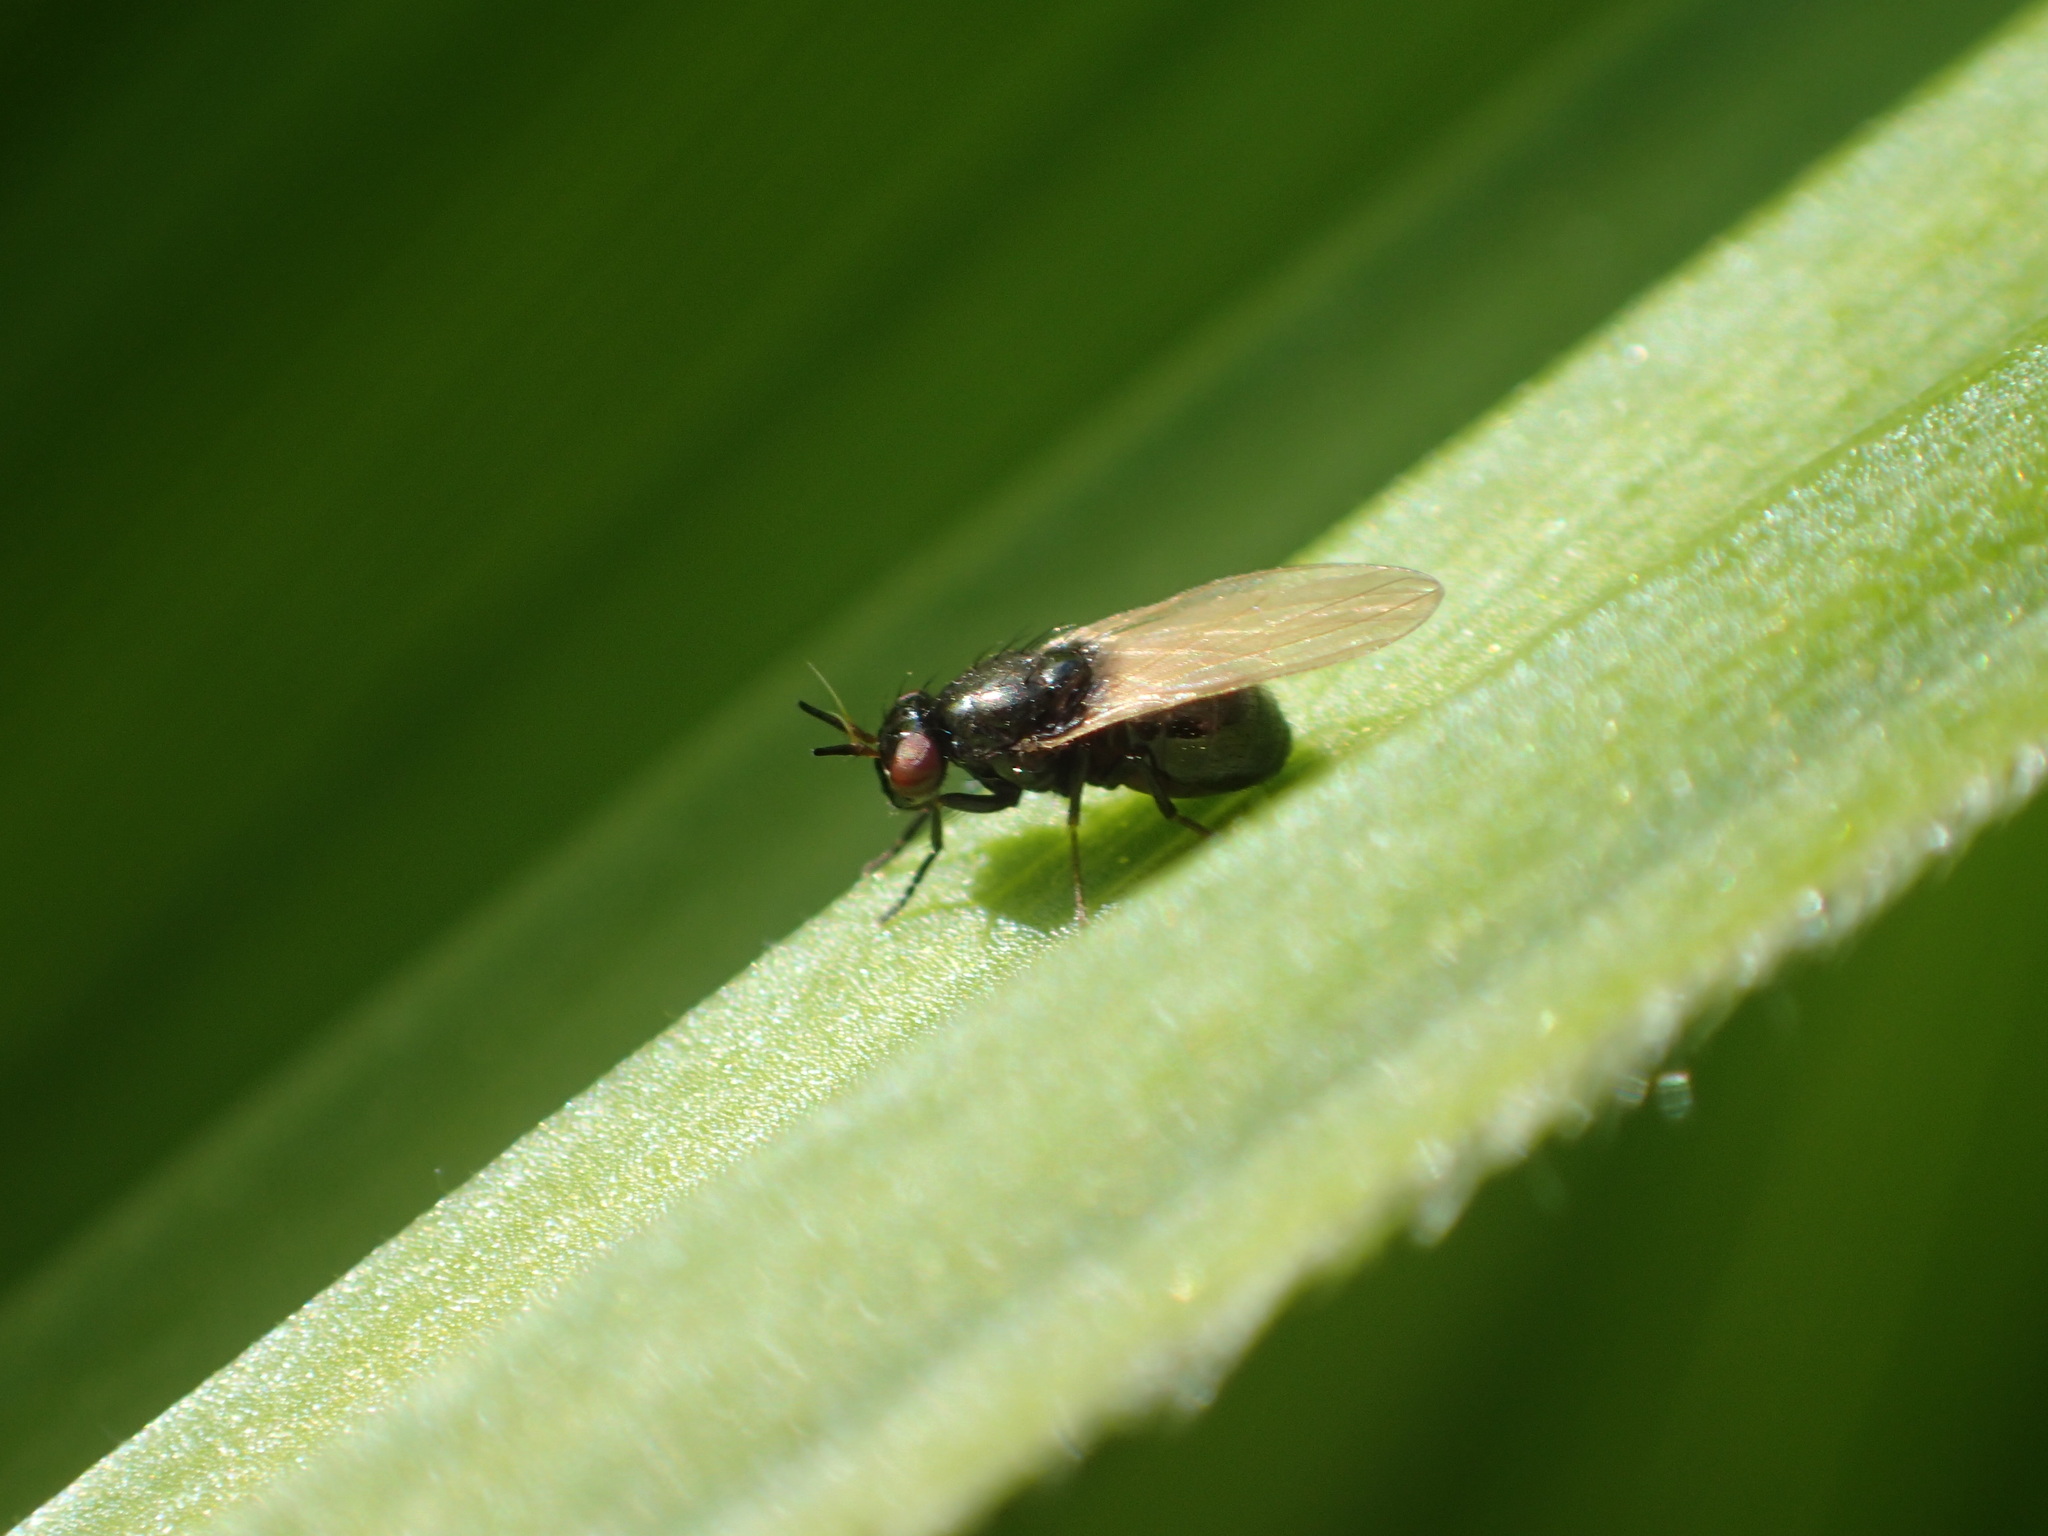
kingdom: Animalia
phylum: Arthropoda
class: Insecta
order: Diptera
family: Lauxaniidae
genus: Lauxania
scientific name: Lauxania shewelli
